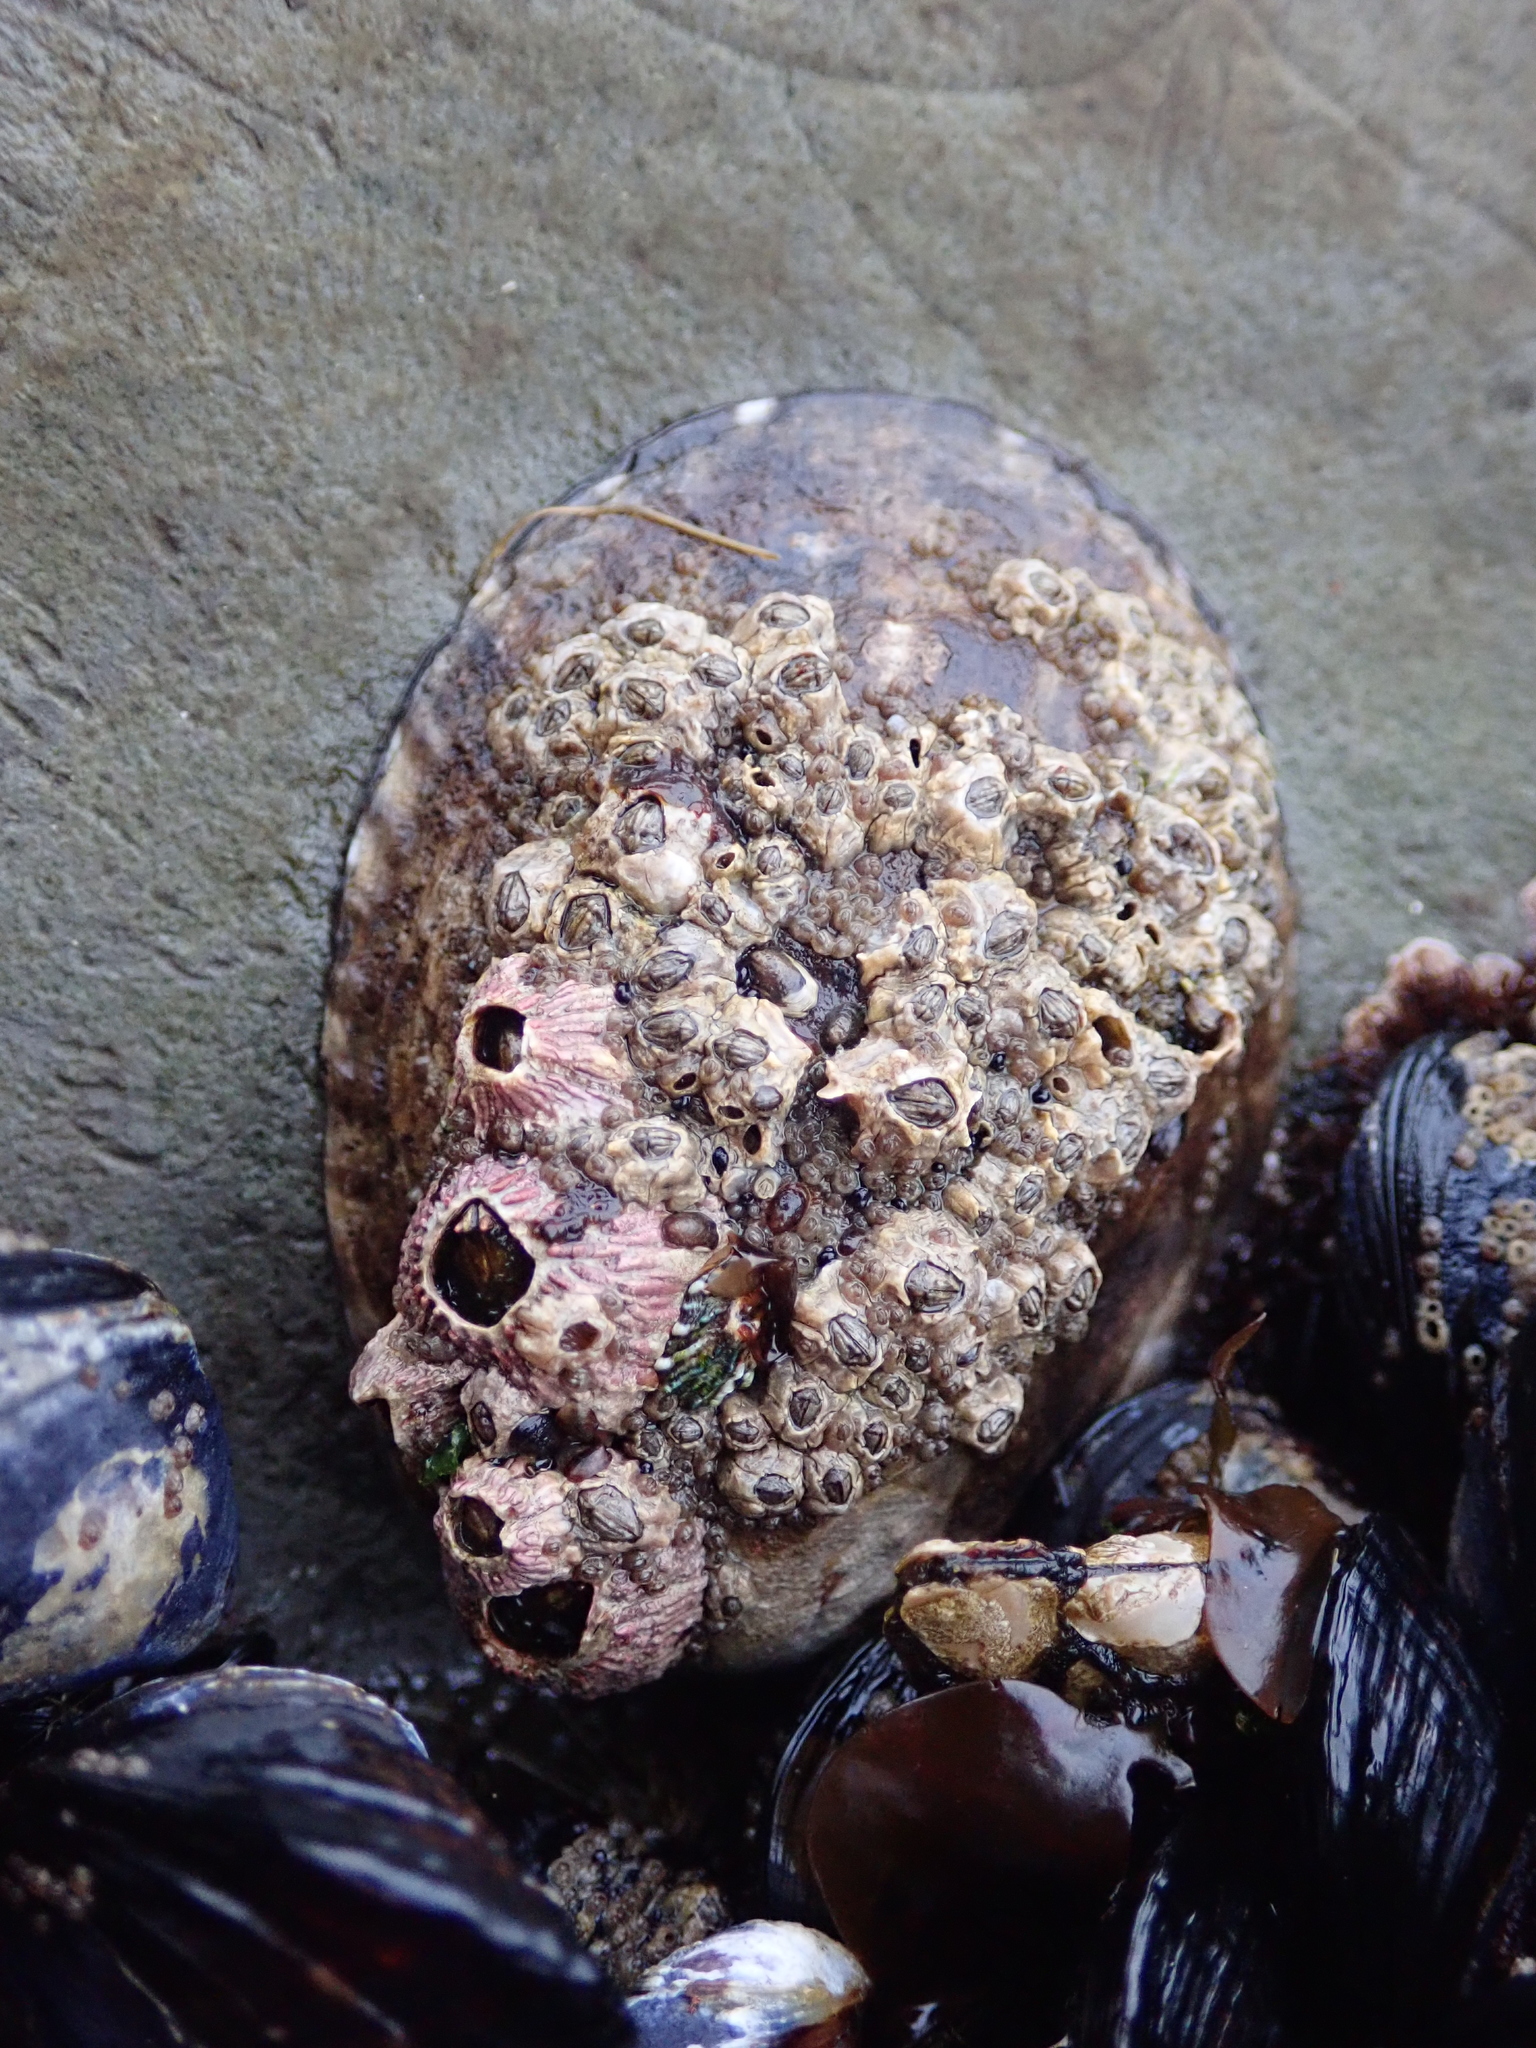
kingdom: Animalia
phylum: Mollusca
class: Gastropoda
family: Lottiidae
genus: Lottia
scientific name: Lottia gigantea
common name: Owl limpet
